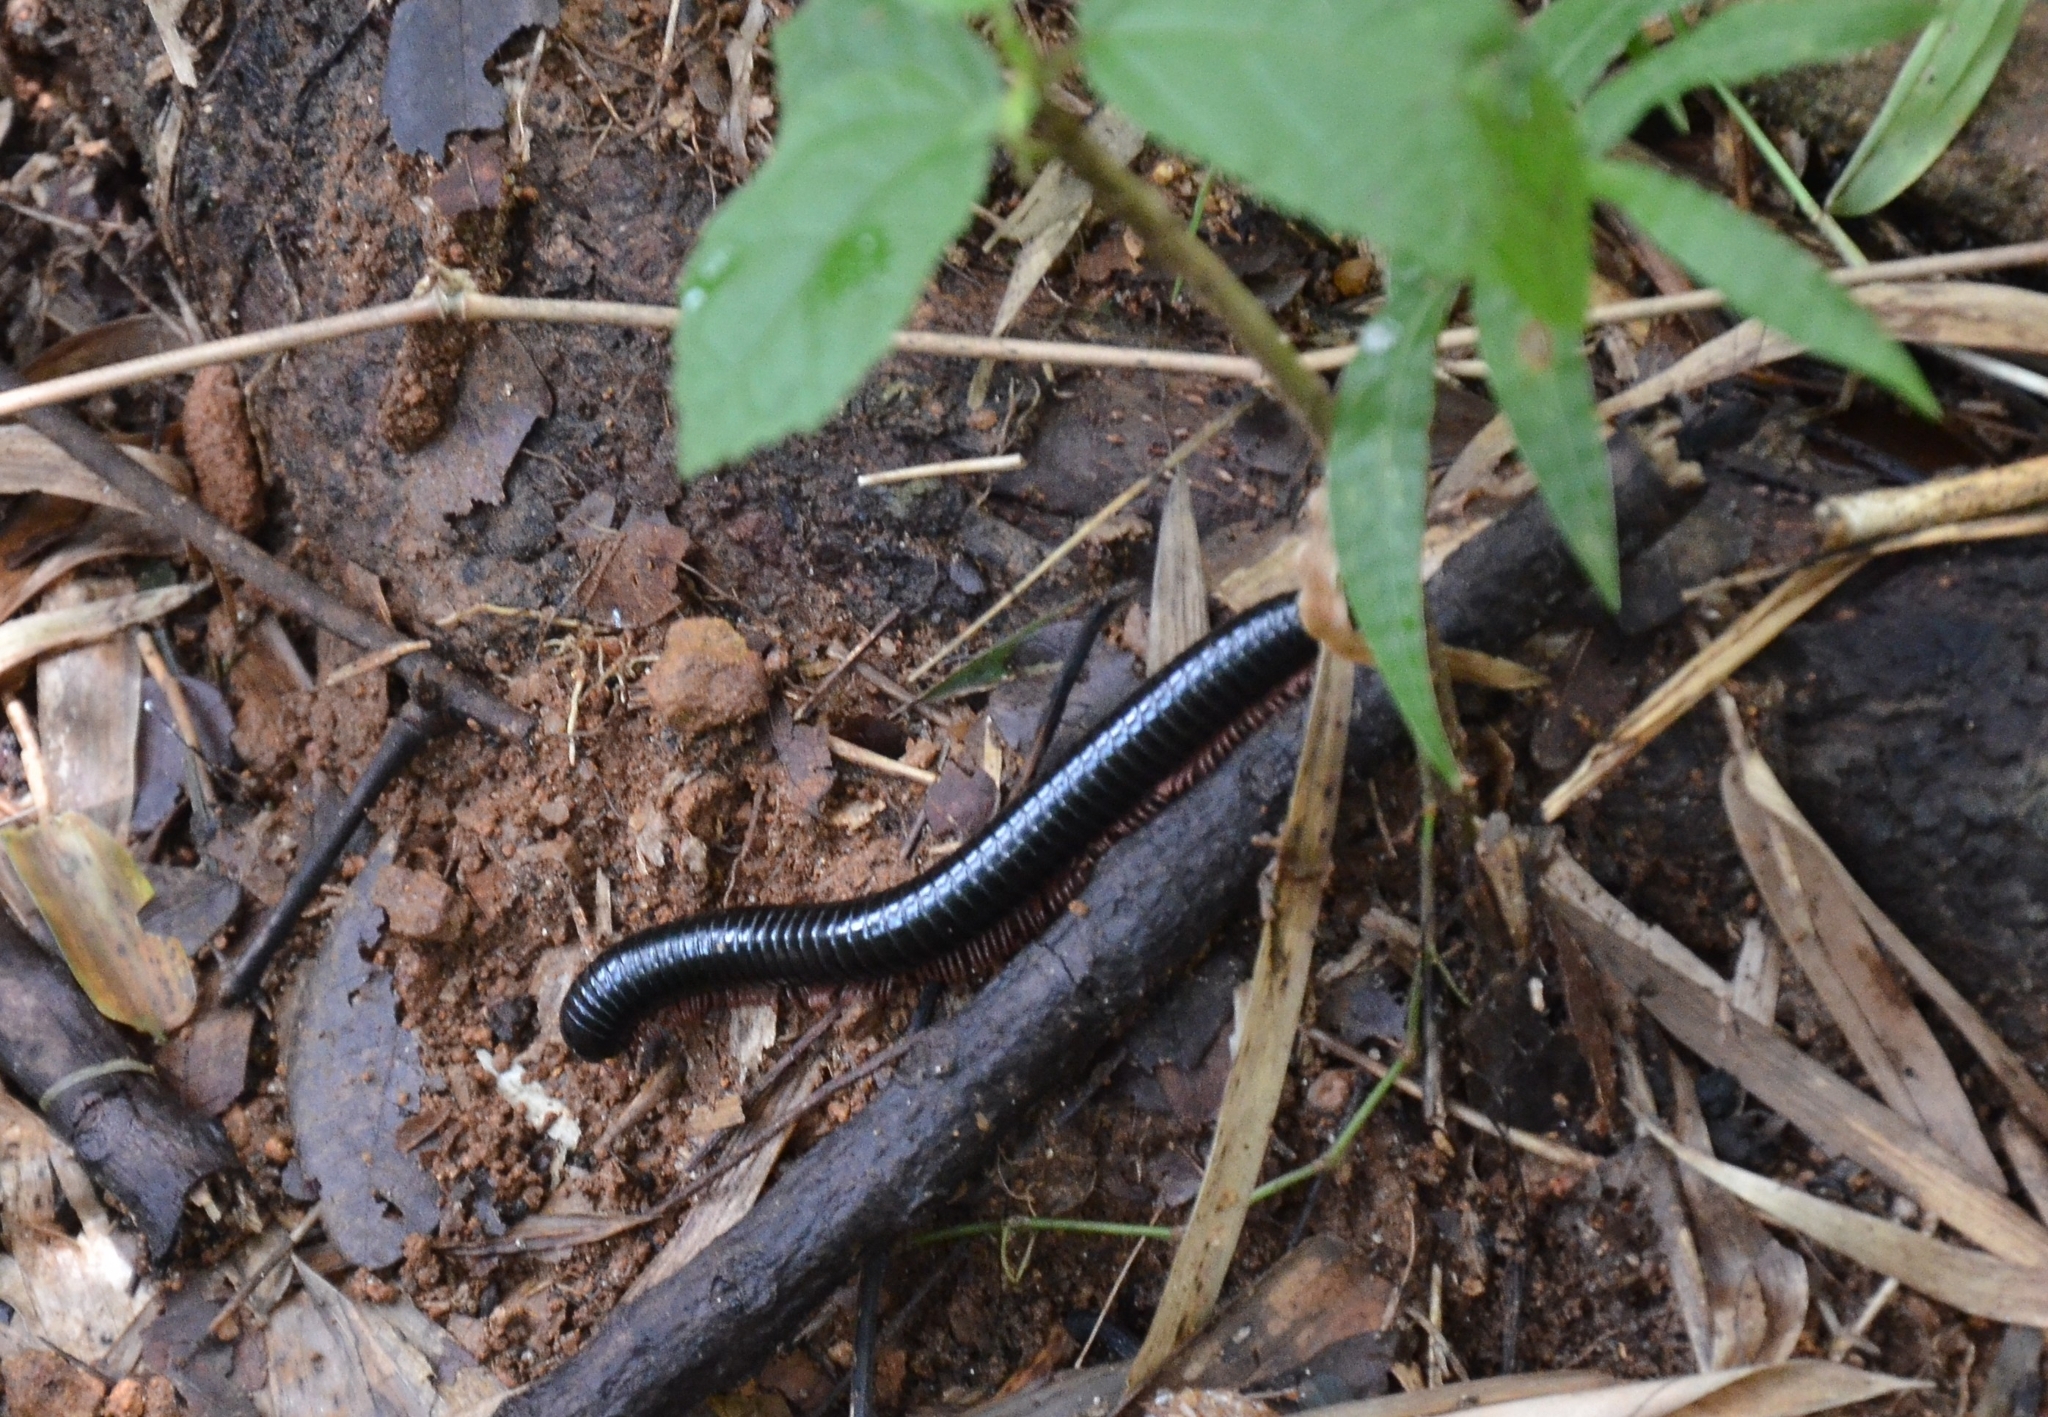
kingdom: Animalia
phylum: Arthropoda
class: Diplopoda
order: Spirostreptida
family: Harpagophoridae
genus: Phyllogonostreptus
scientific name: Phyllogonostreptus nigrolabiatus
